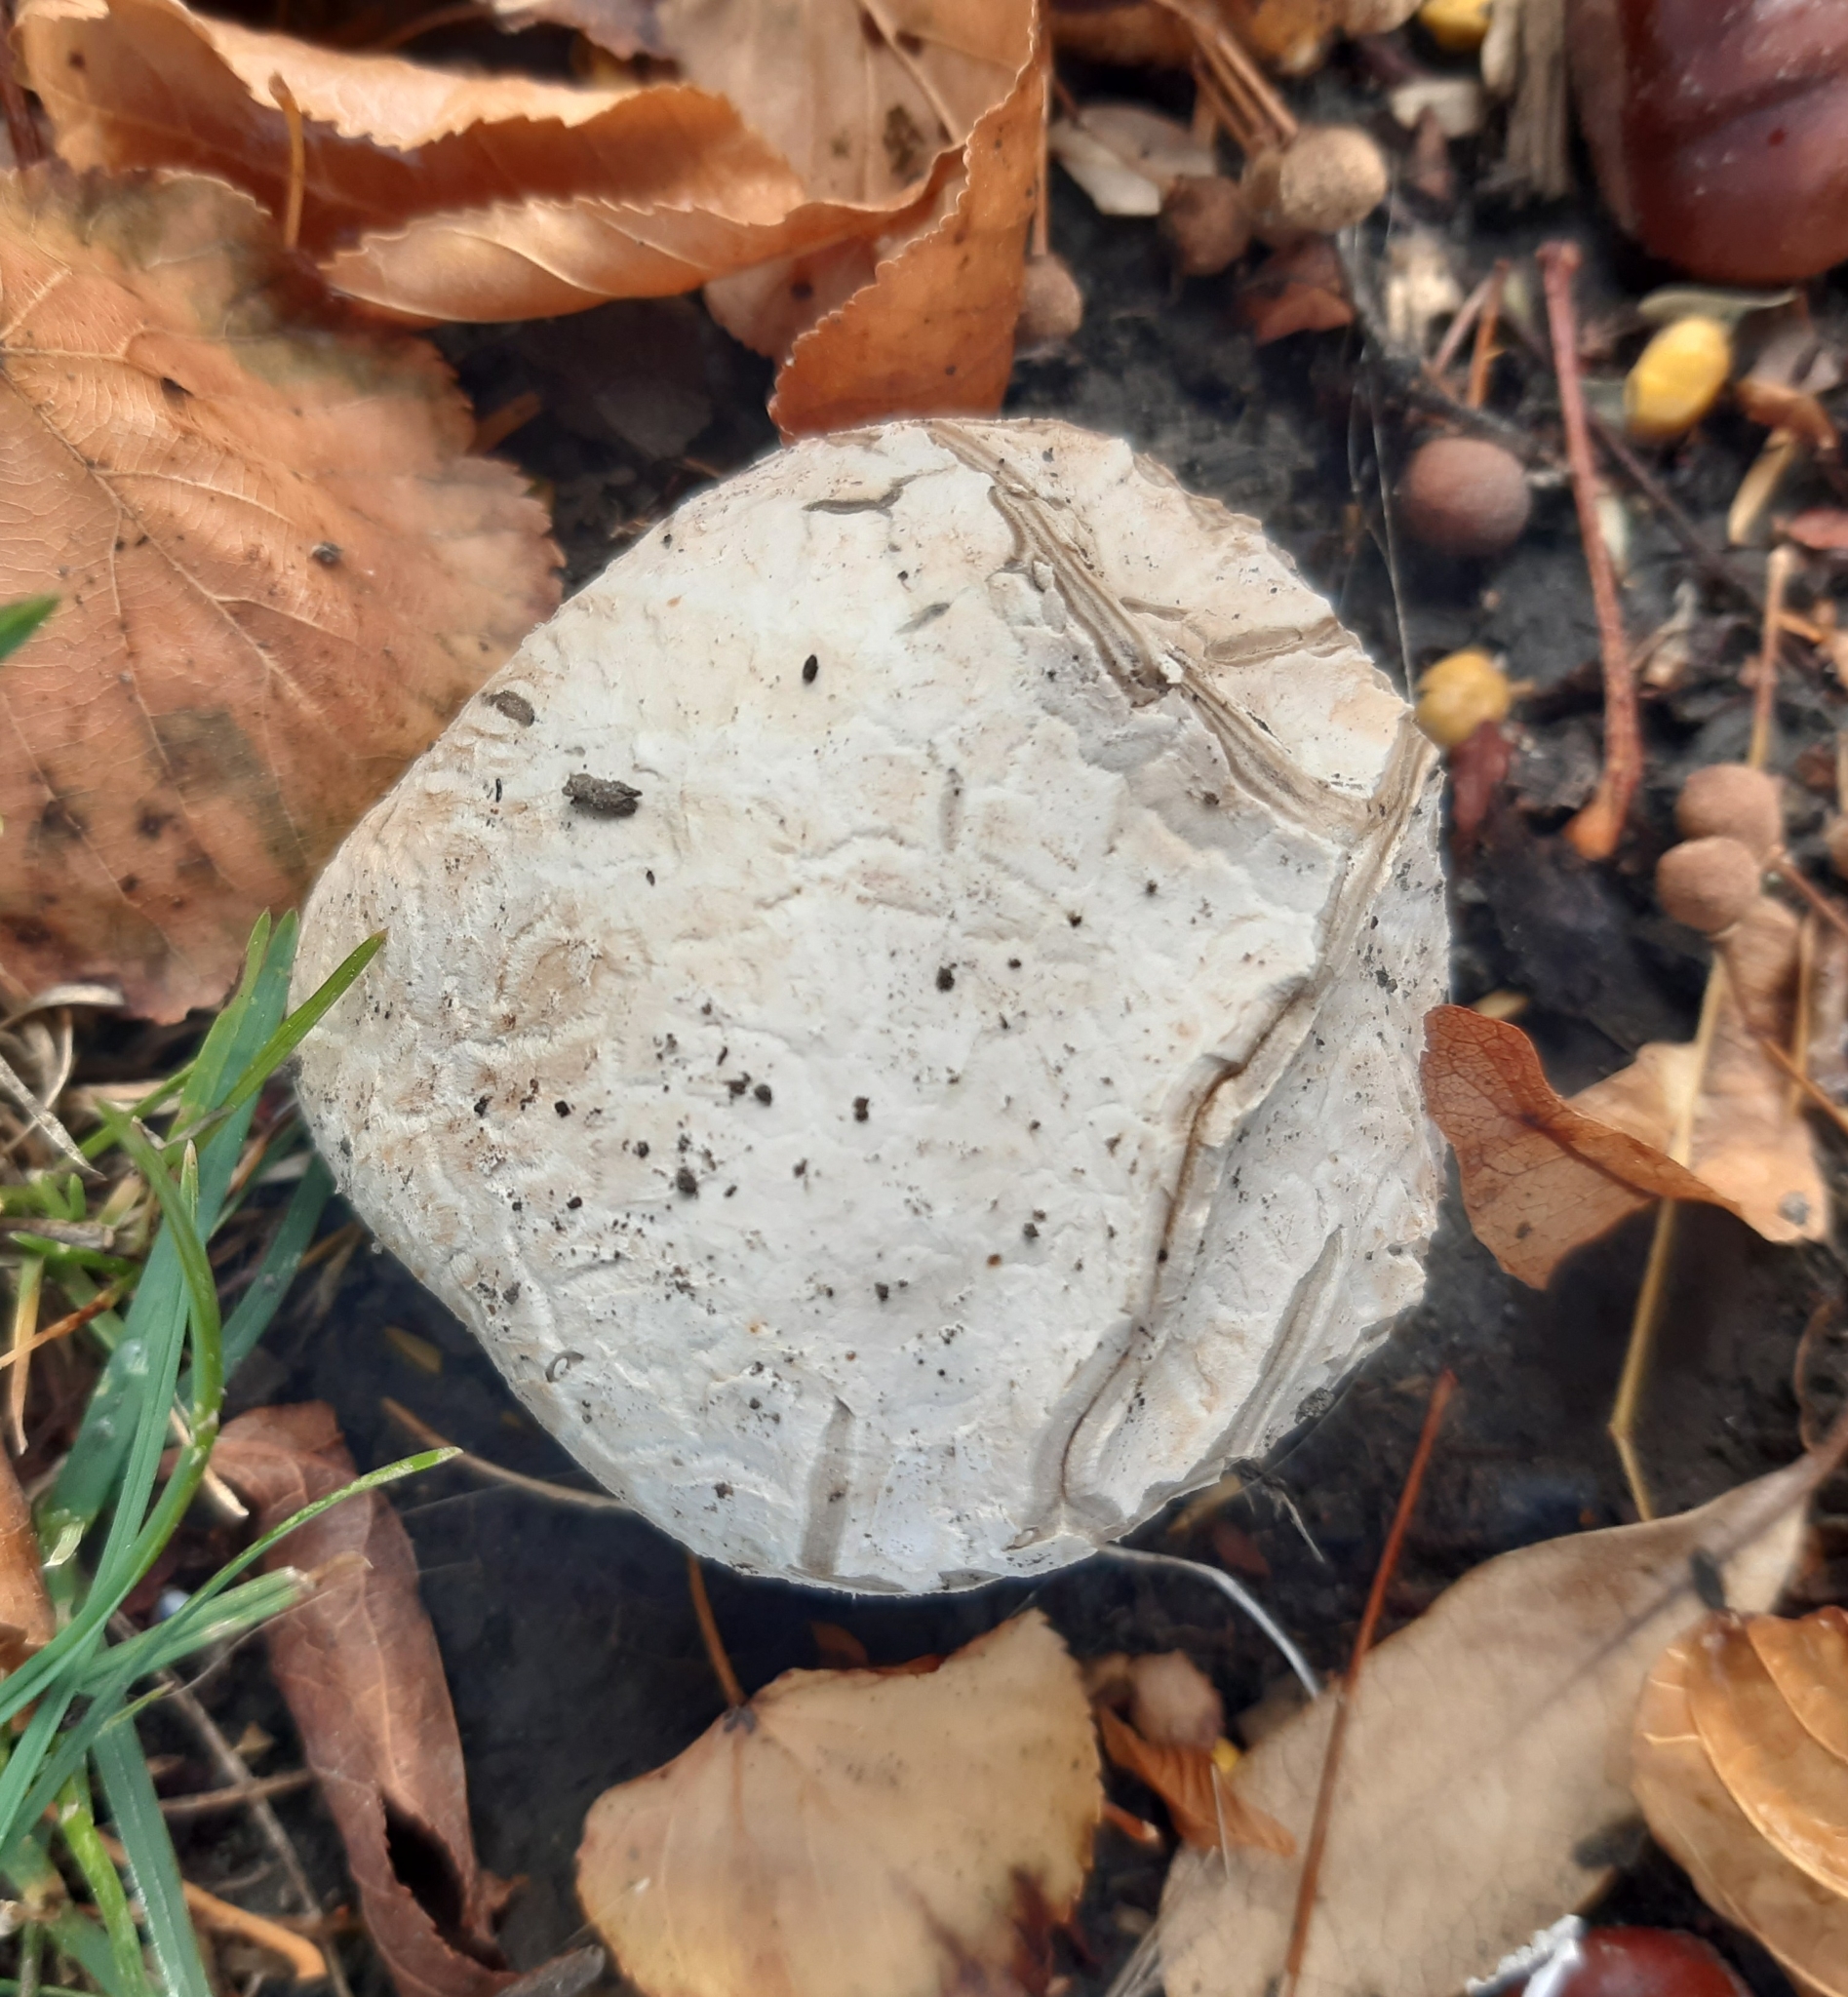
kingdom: Fungi
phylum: Basidiomycota
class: Agaricomycetes
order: Agaricales
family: Lycoperdaceae
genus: Calvatia
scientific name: Calvatia lilacina
